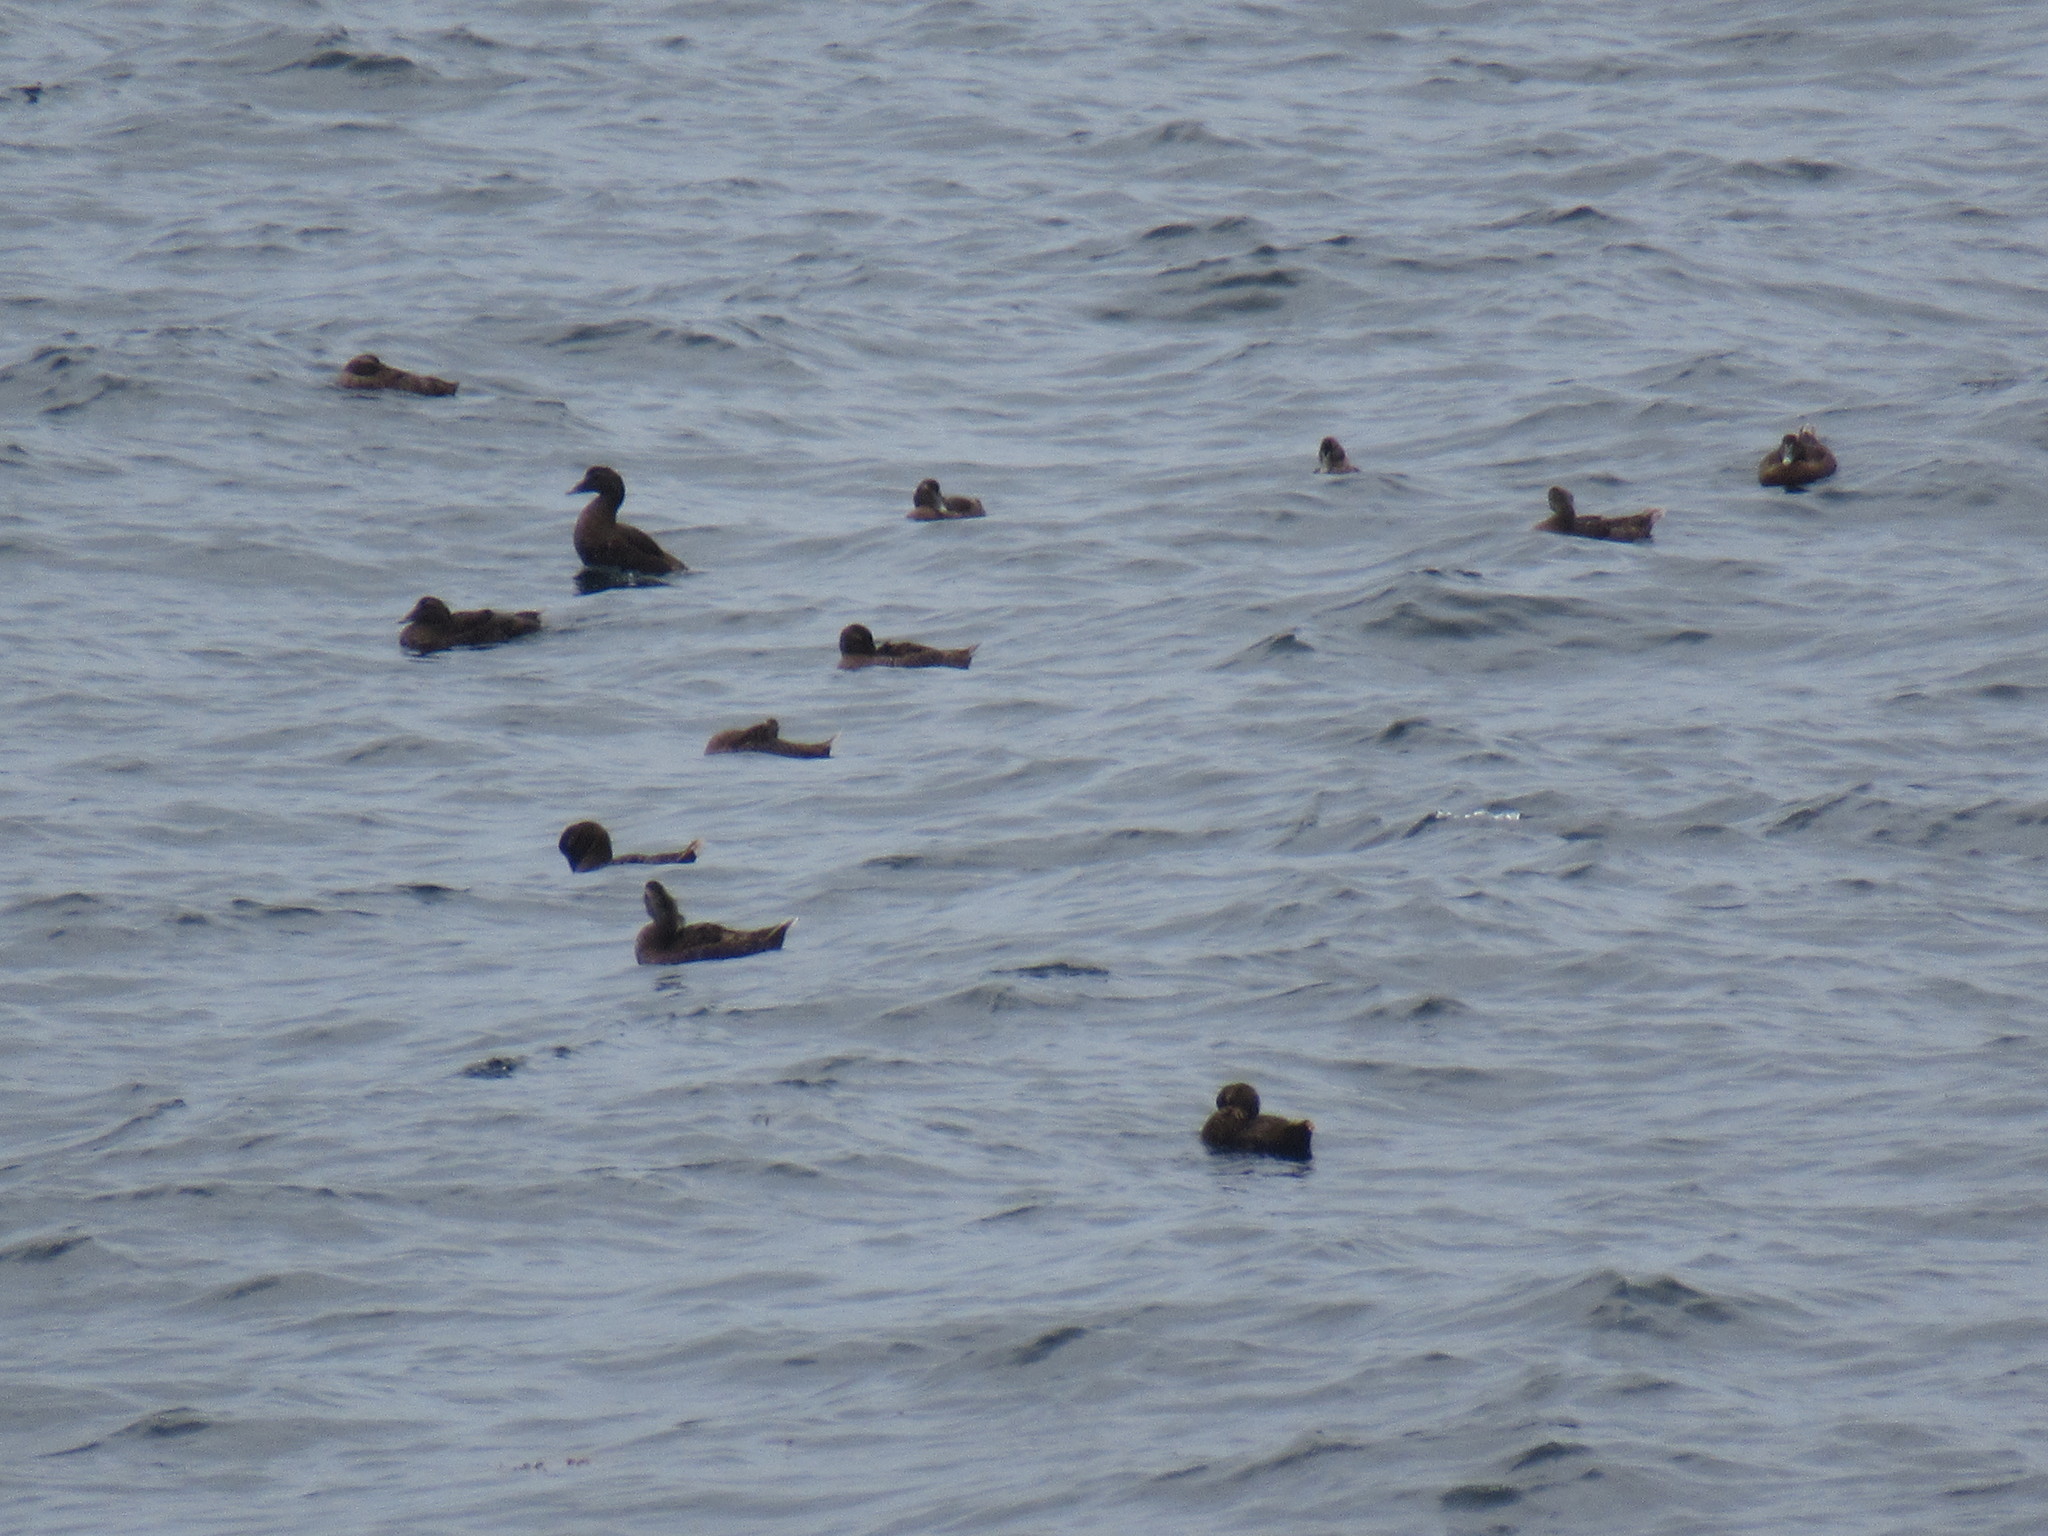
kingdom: Animalia
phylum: Chordata
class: Aves
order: Anseriformes
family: Anatidae
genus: Somateria
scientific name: Somateria mollissima
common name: Common eider
